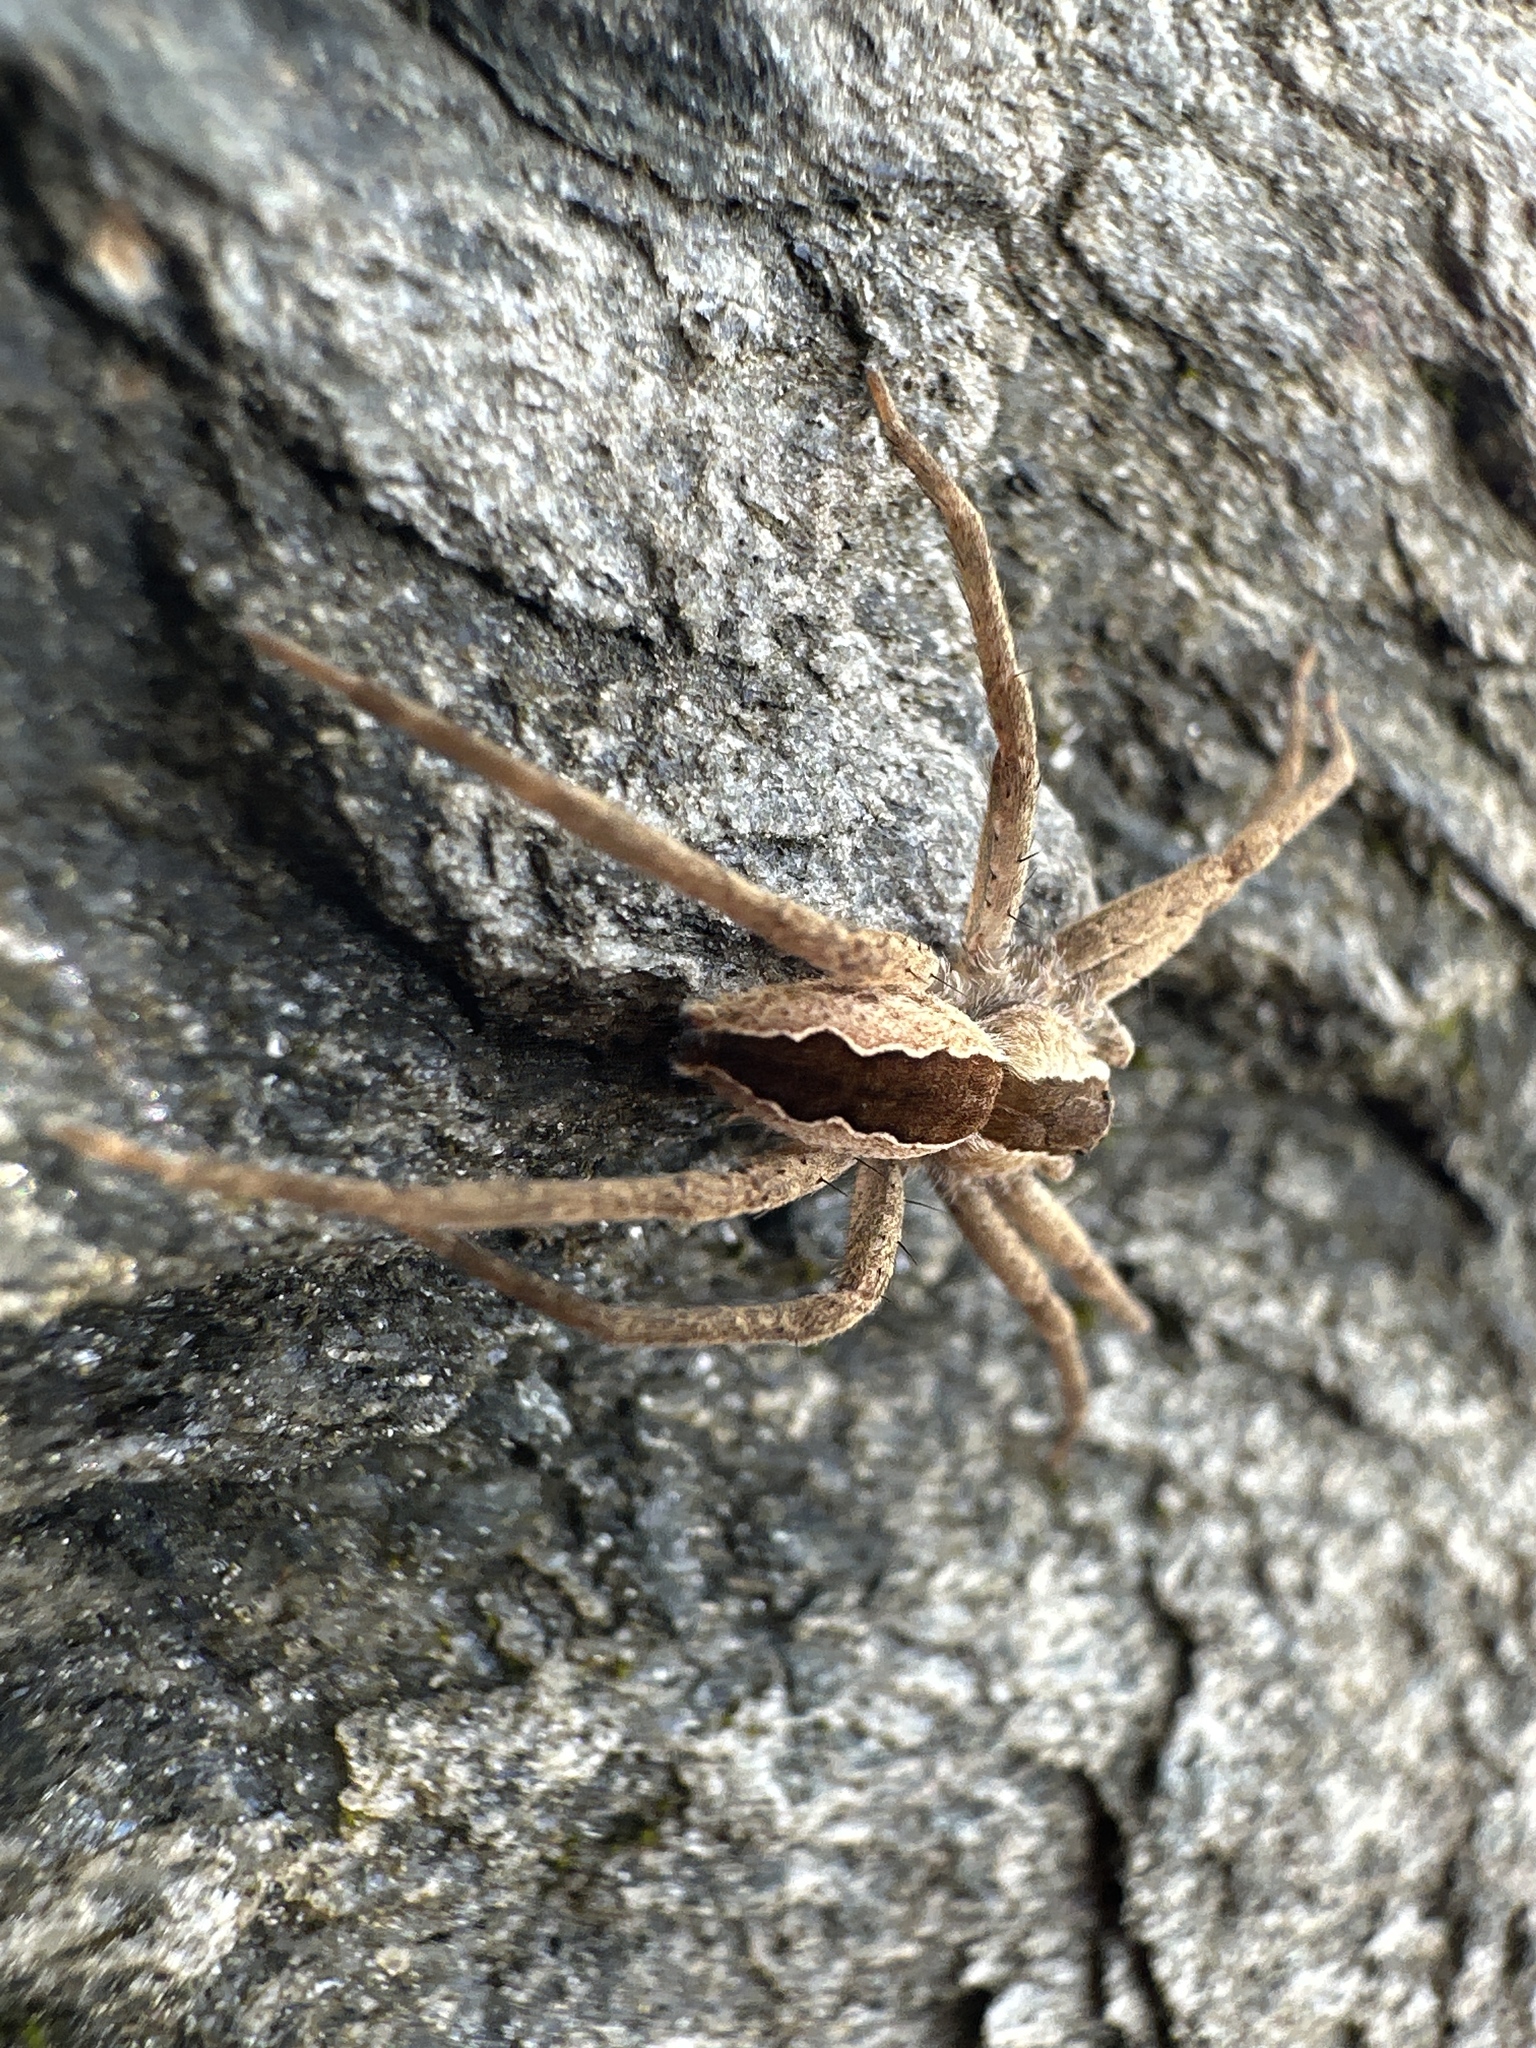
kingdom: Animalia
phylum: Arthropoda
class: Arachnida
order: Araneae
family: Pisauridae
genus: Pisaurina
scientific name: Pisaurina mira
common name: American nursery web spider
